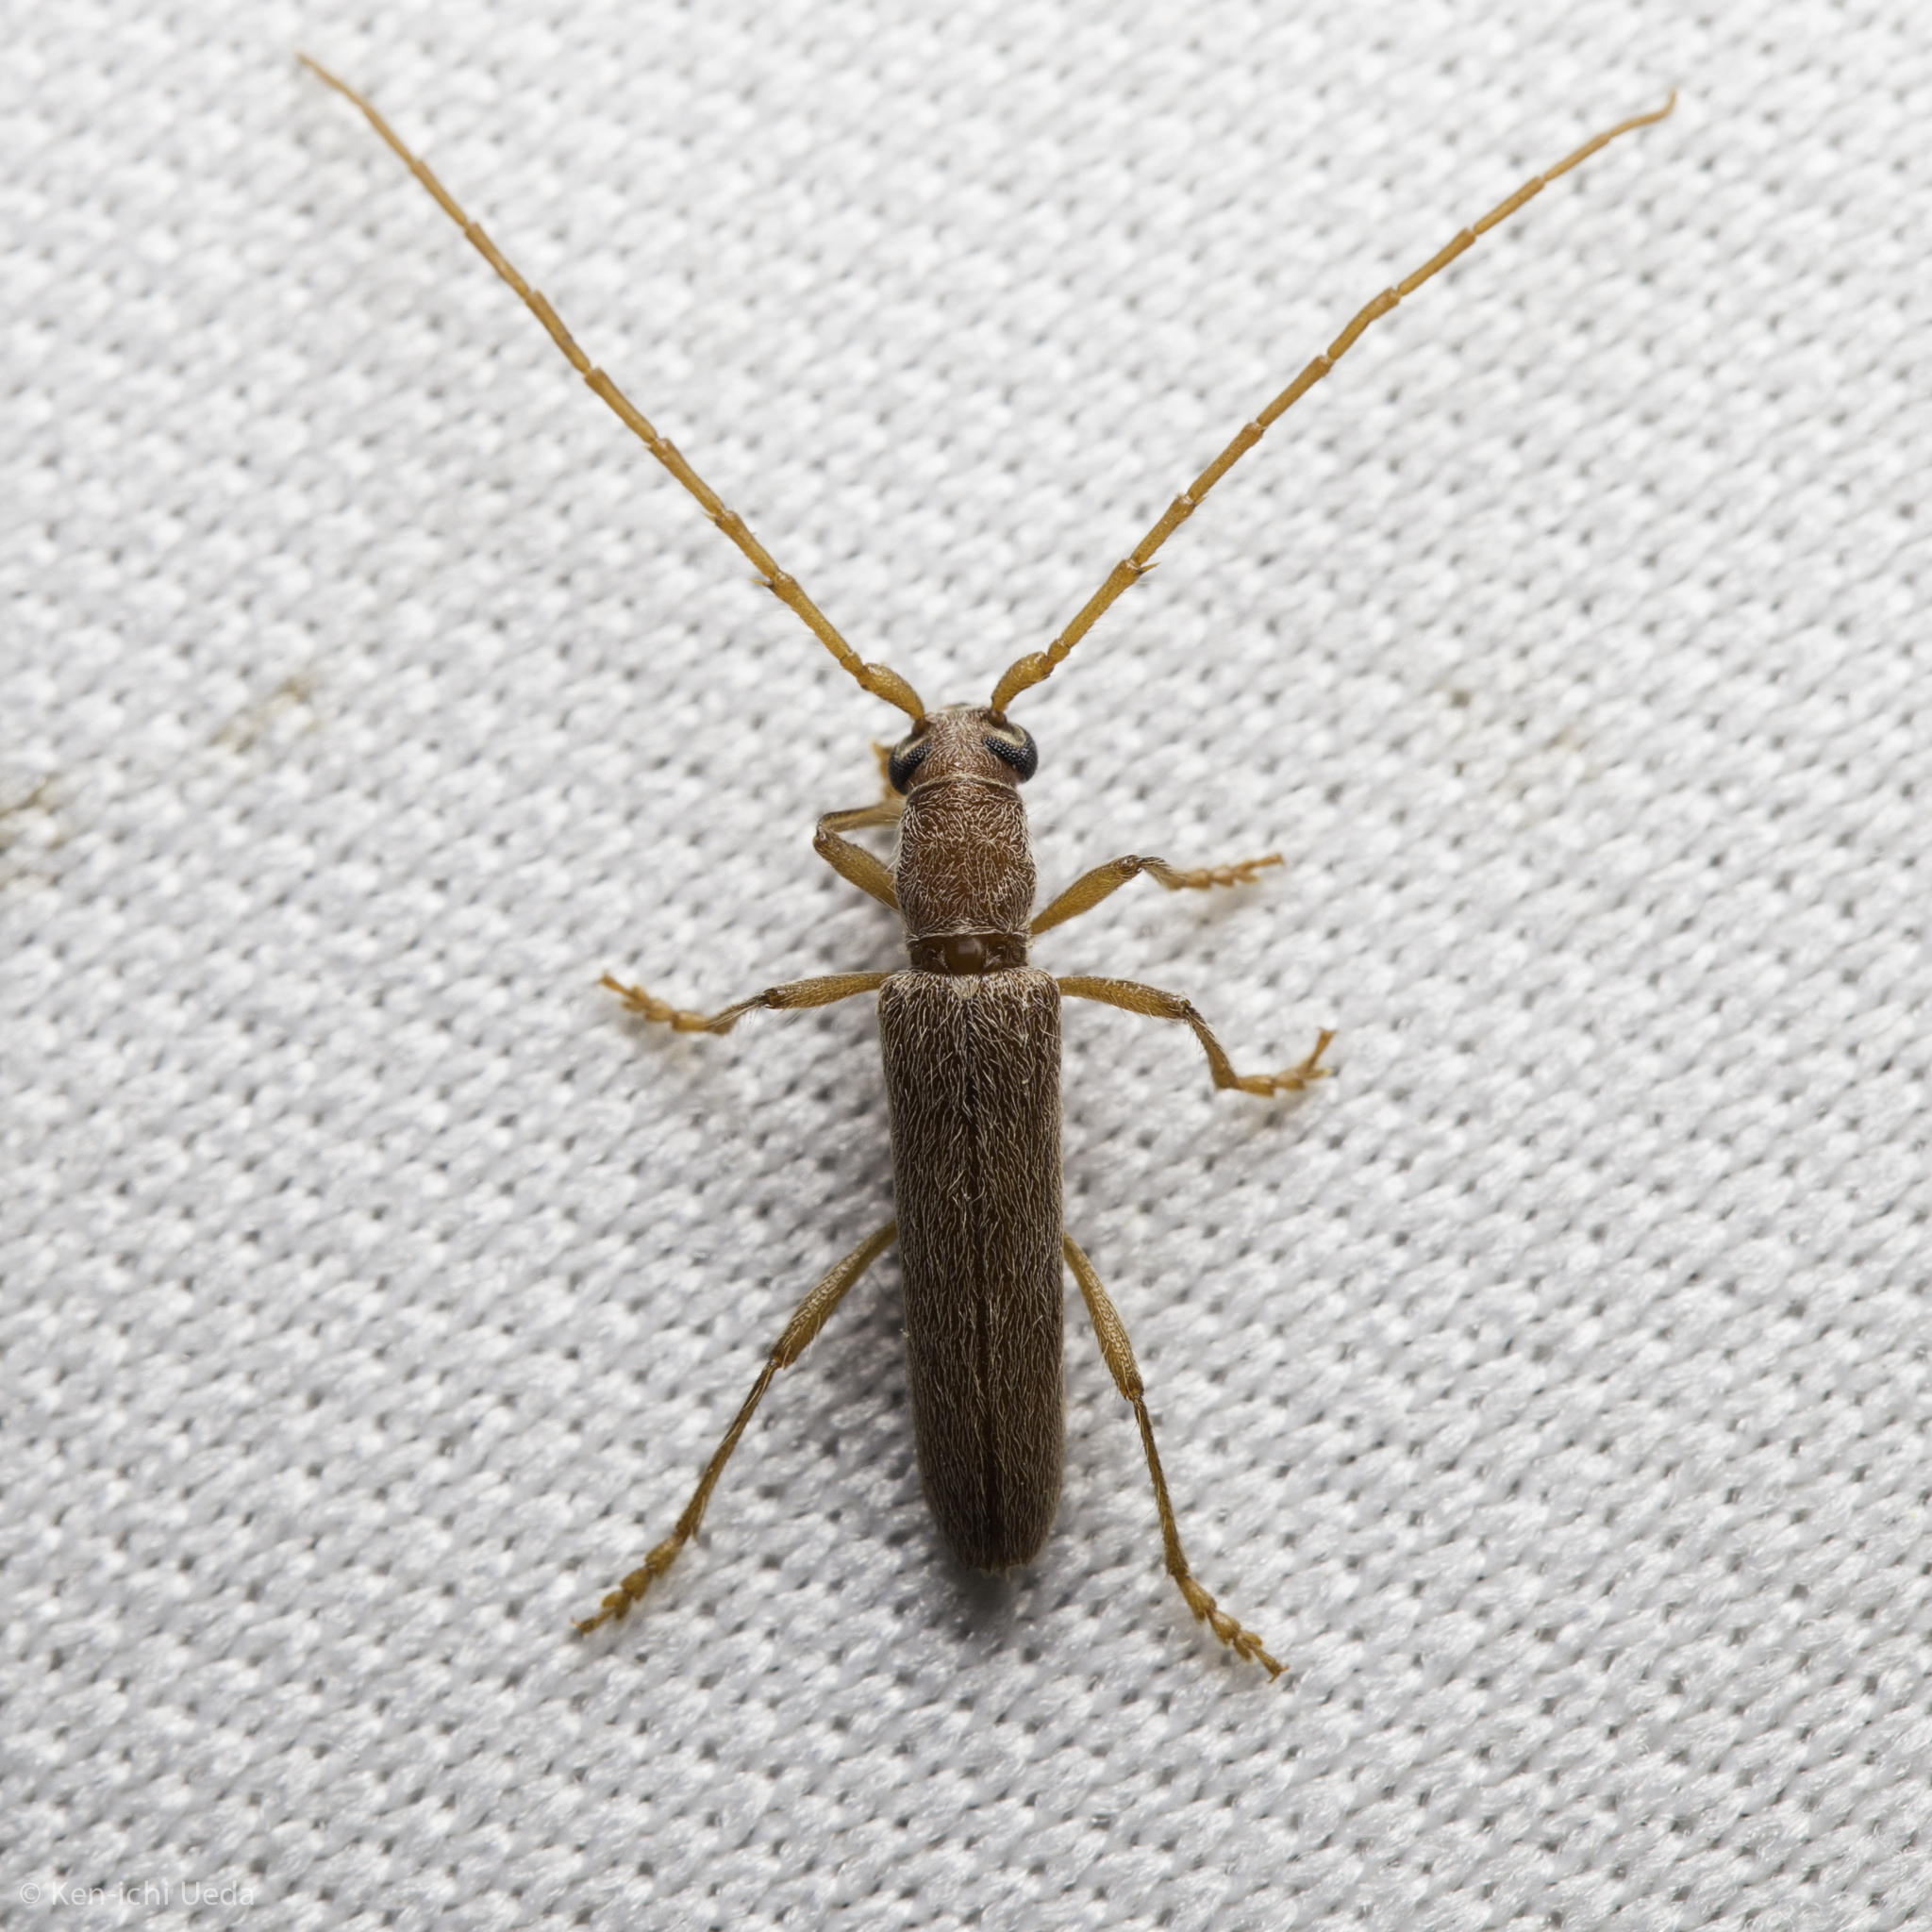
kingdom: Animalia
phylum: Arthropoda
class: Insecta
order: Coleoptera
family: Cerambycidae
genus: Aneflomorpha
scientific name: Aneflomorpha lineare
